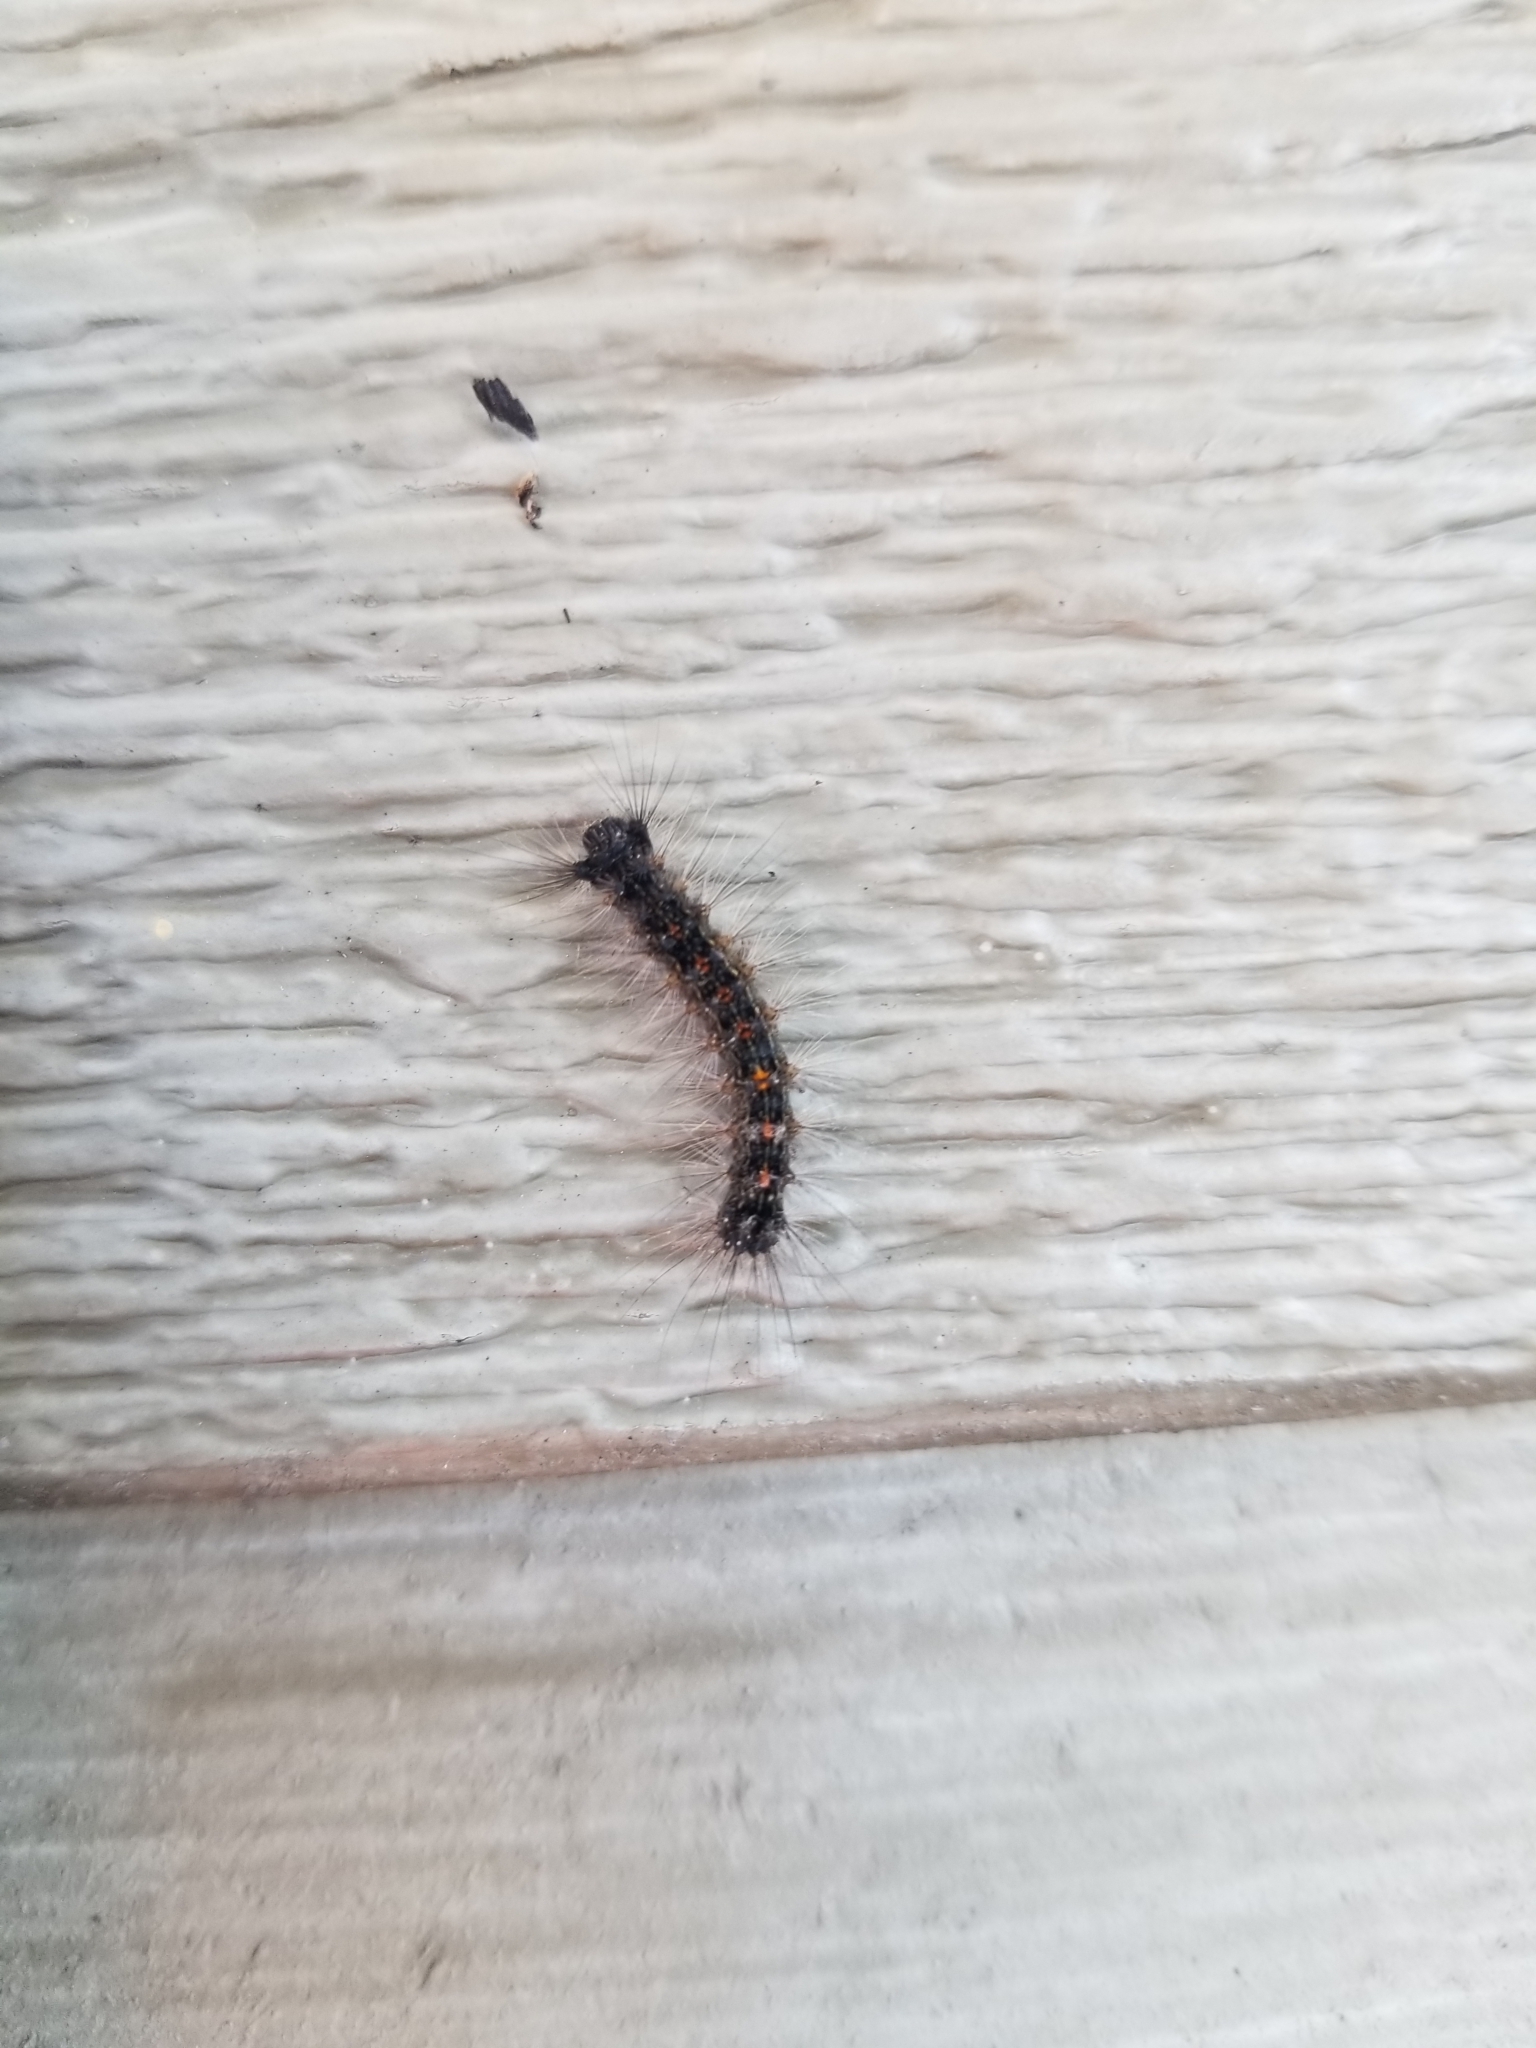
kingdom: Animalia
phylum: Arthropoda
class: Insecta
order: Lepidoptera
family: Erebidae
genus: Lymantria
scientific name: Lymantria dispar
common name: Gypsy moth
